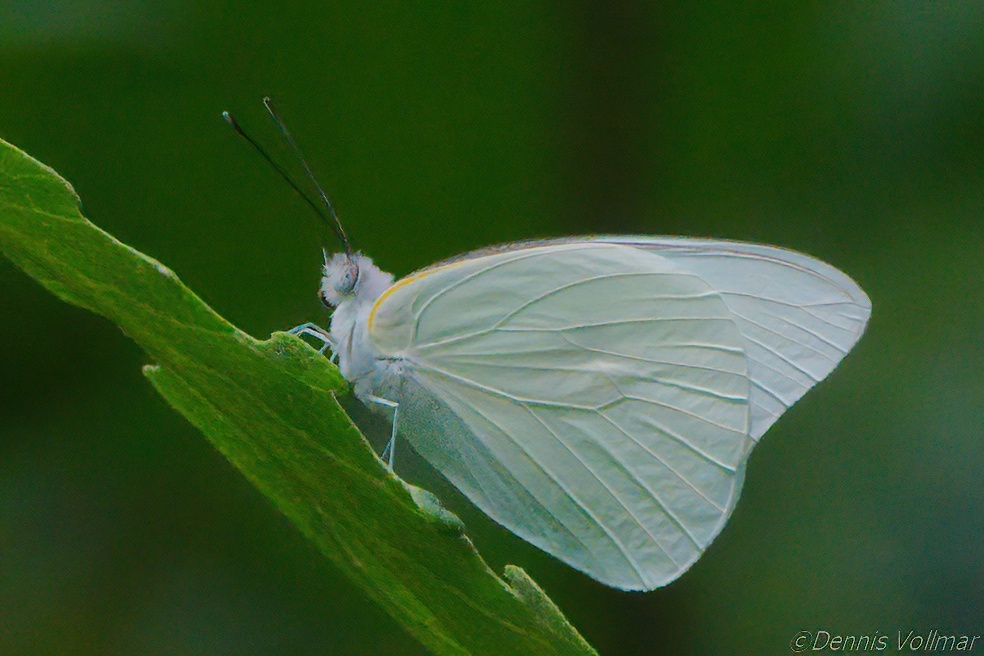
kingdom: Animalia
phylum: Arthropoda
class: Insecta
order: Lepidoptera
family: Pieridae
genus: Glutophrissa
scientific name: Glutophrissa drusilla
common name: Florida white
